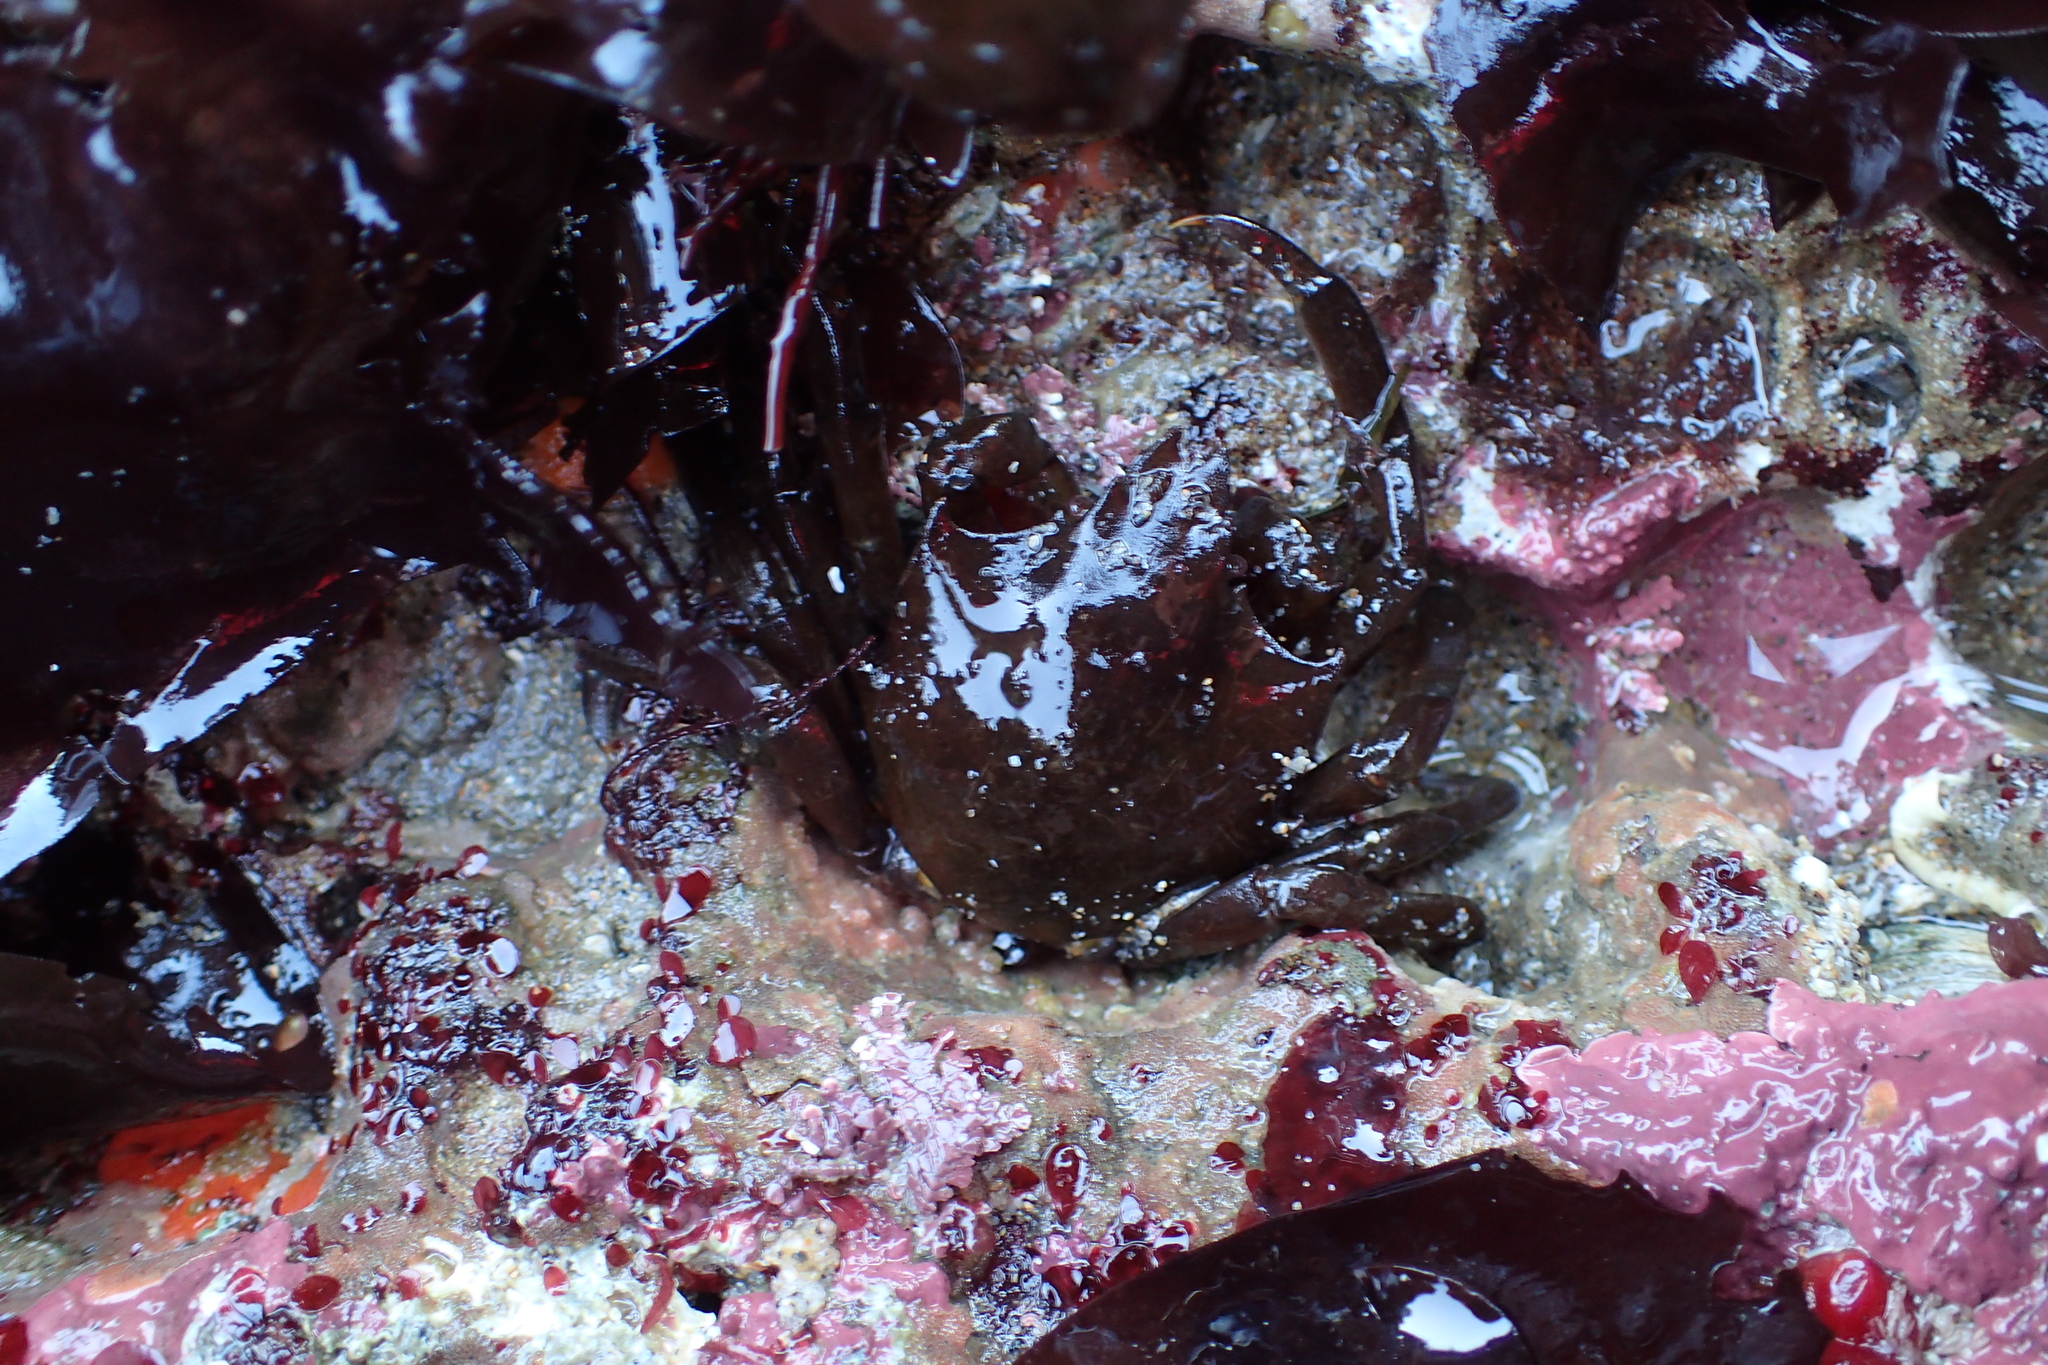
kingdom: Animalia
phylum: Arthropoda
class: Malacostraca
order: Decapoda
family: Epialtidae
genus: Pugettia
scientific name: Pugettia producta
